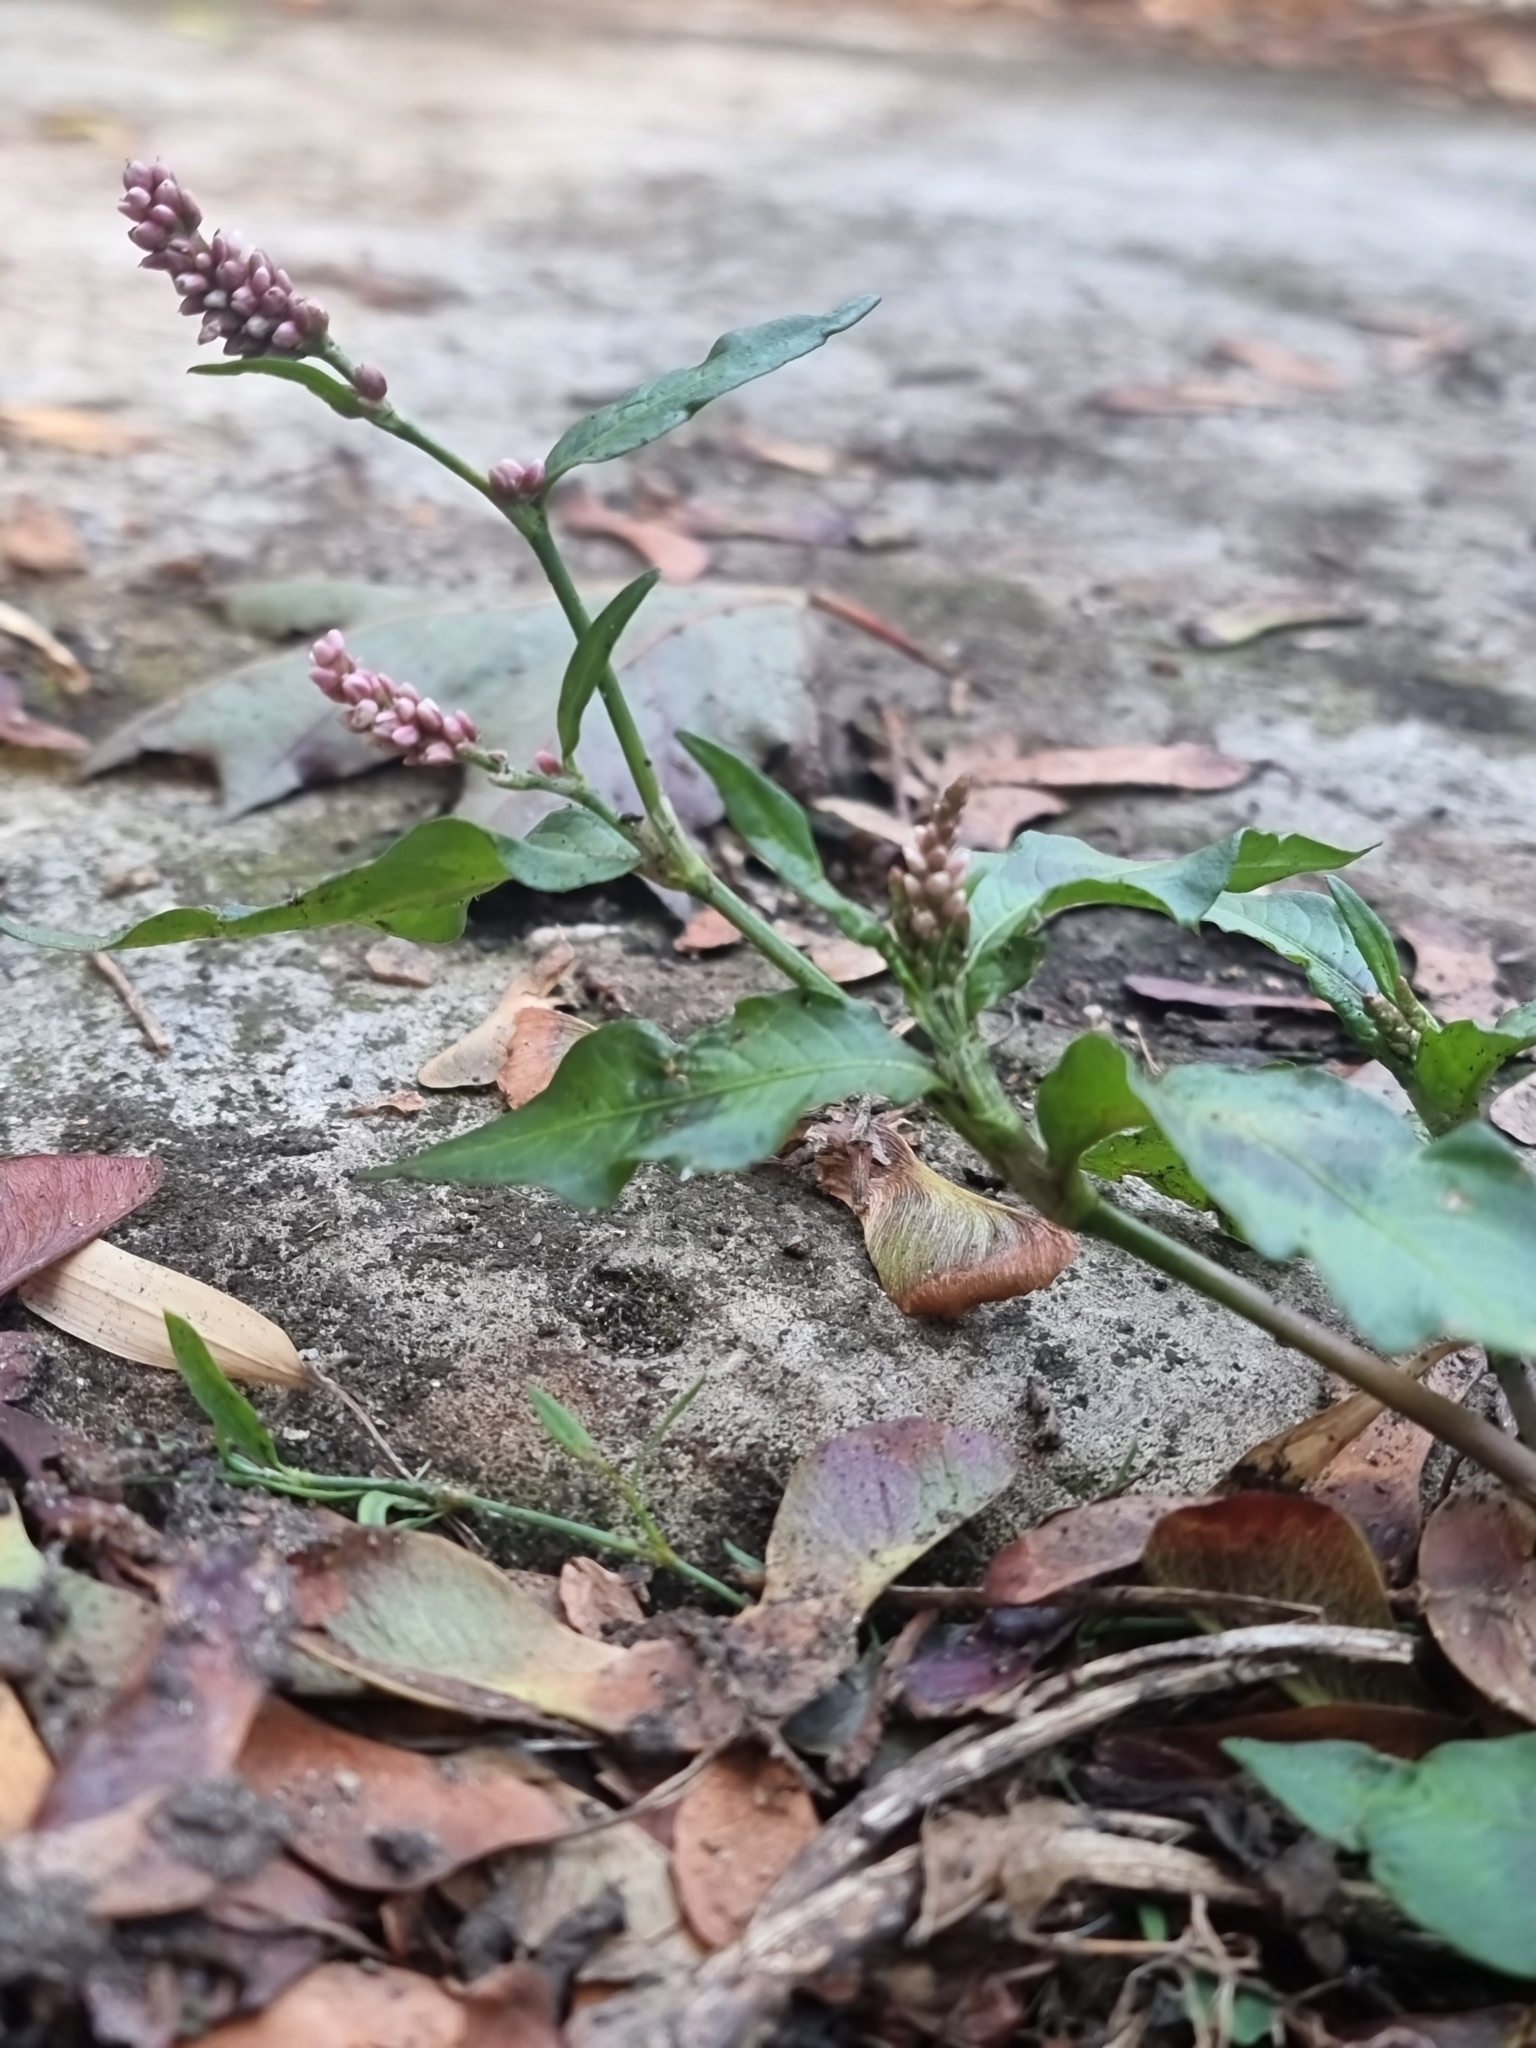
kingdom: Plantae
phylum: Tracheophyta
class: Magnoliopsida
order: Caryophyllales
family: Polygonaceae
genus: Persicaria
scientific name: Persicaria maculosa
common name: Redshank
